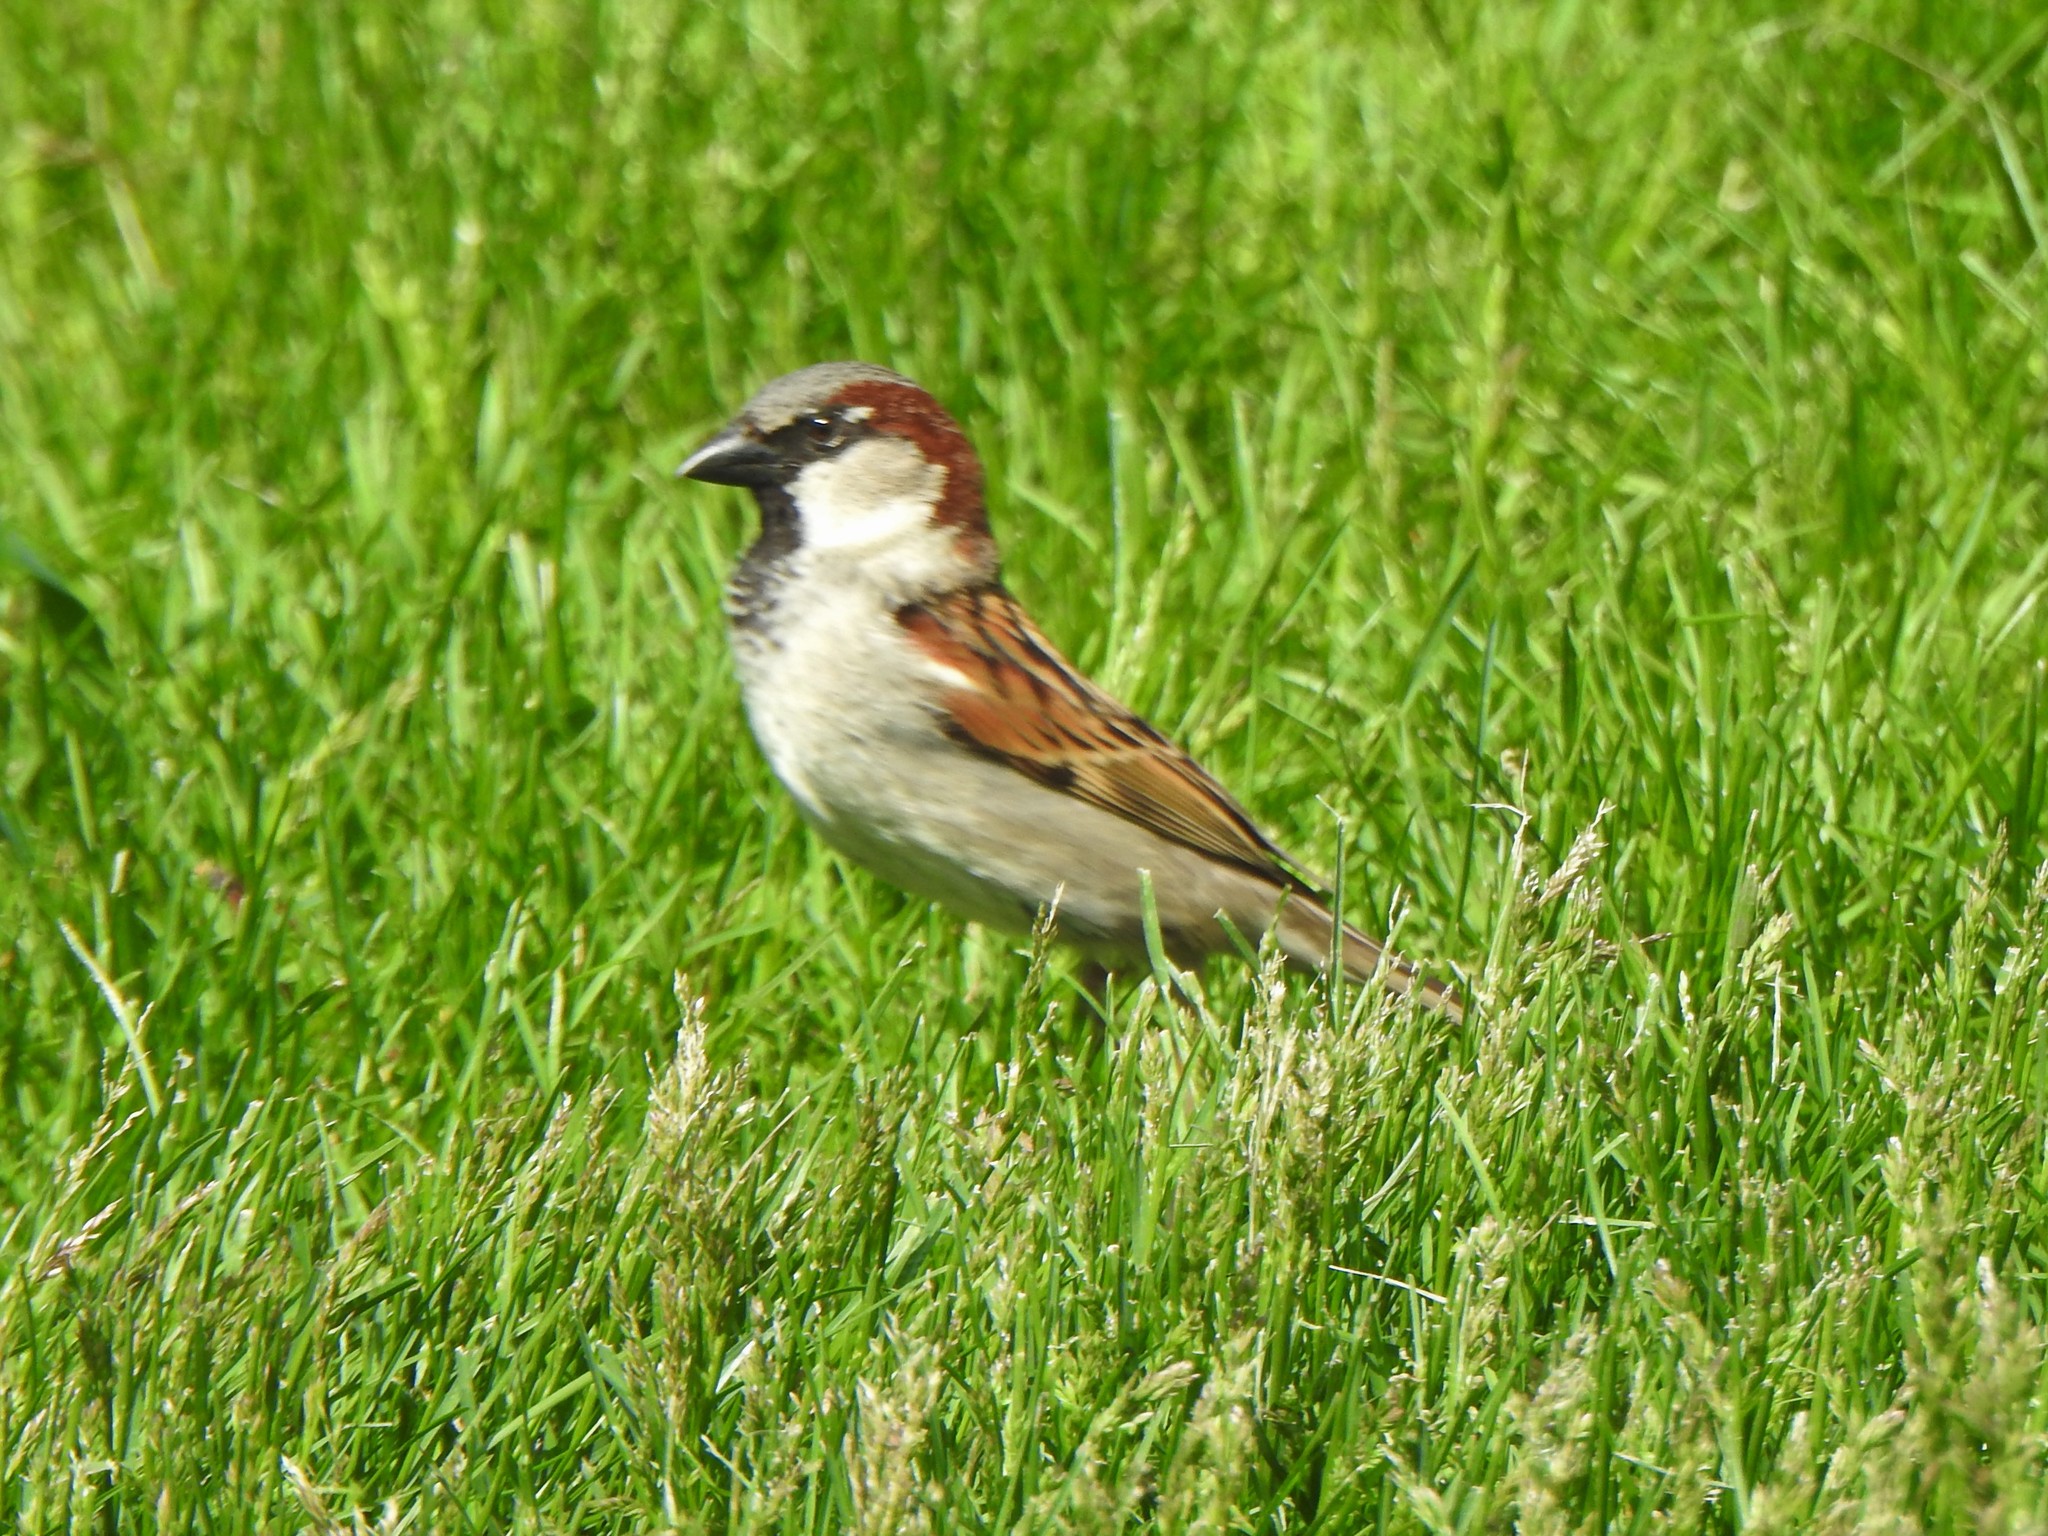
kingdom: Animalia
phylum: Chordata
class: Aves
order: Passeriformes
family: Passeridae
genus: Passer
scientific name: Passer domesticus
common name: House sparrow
